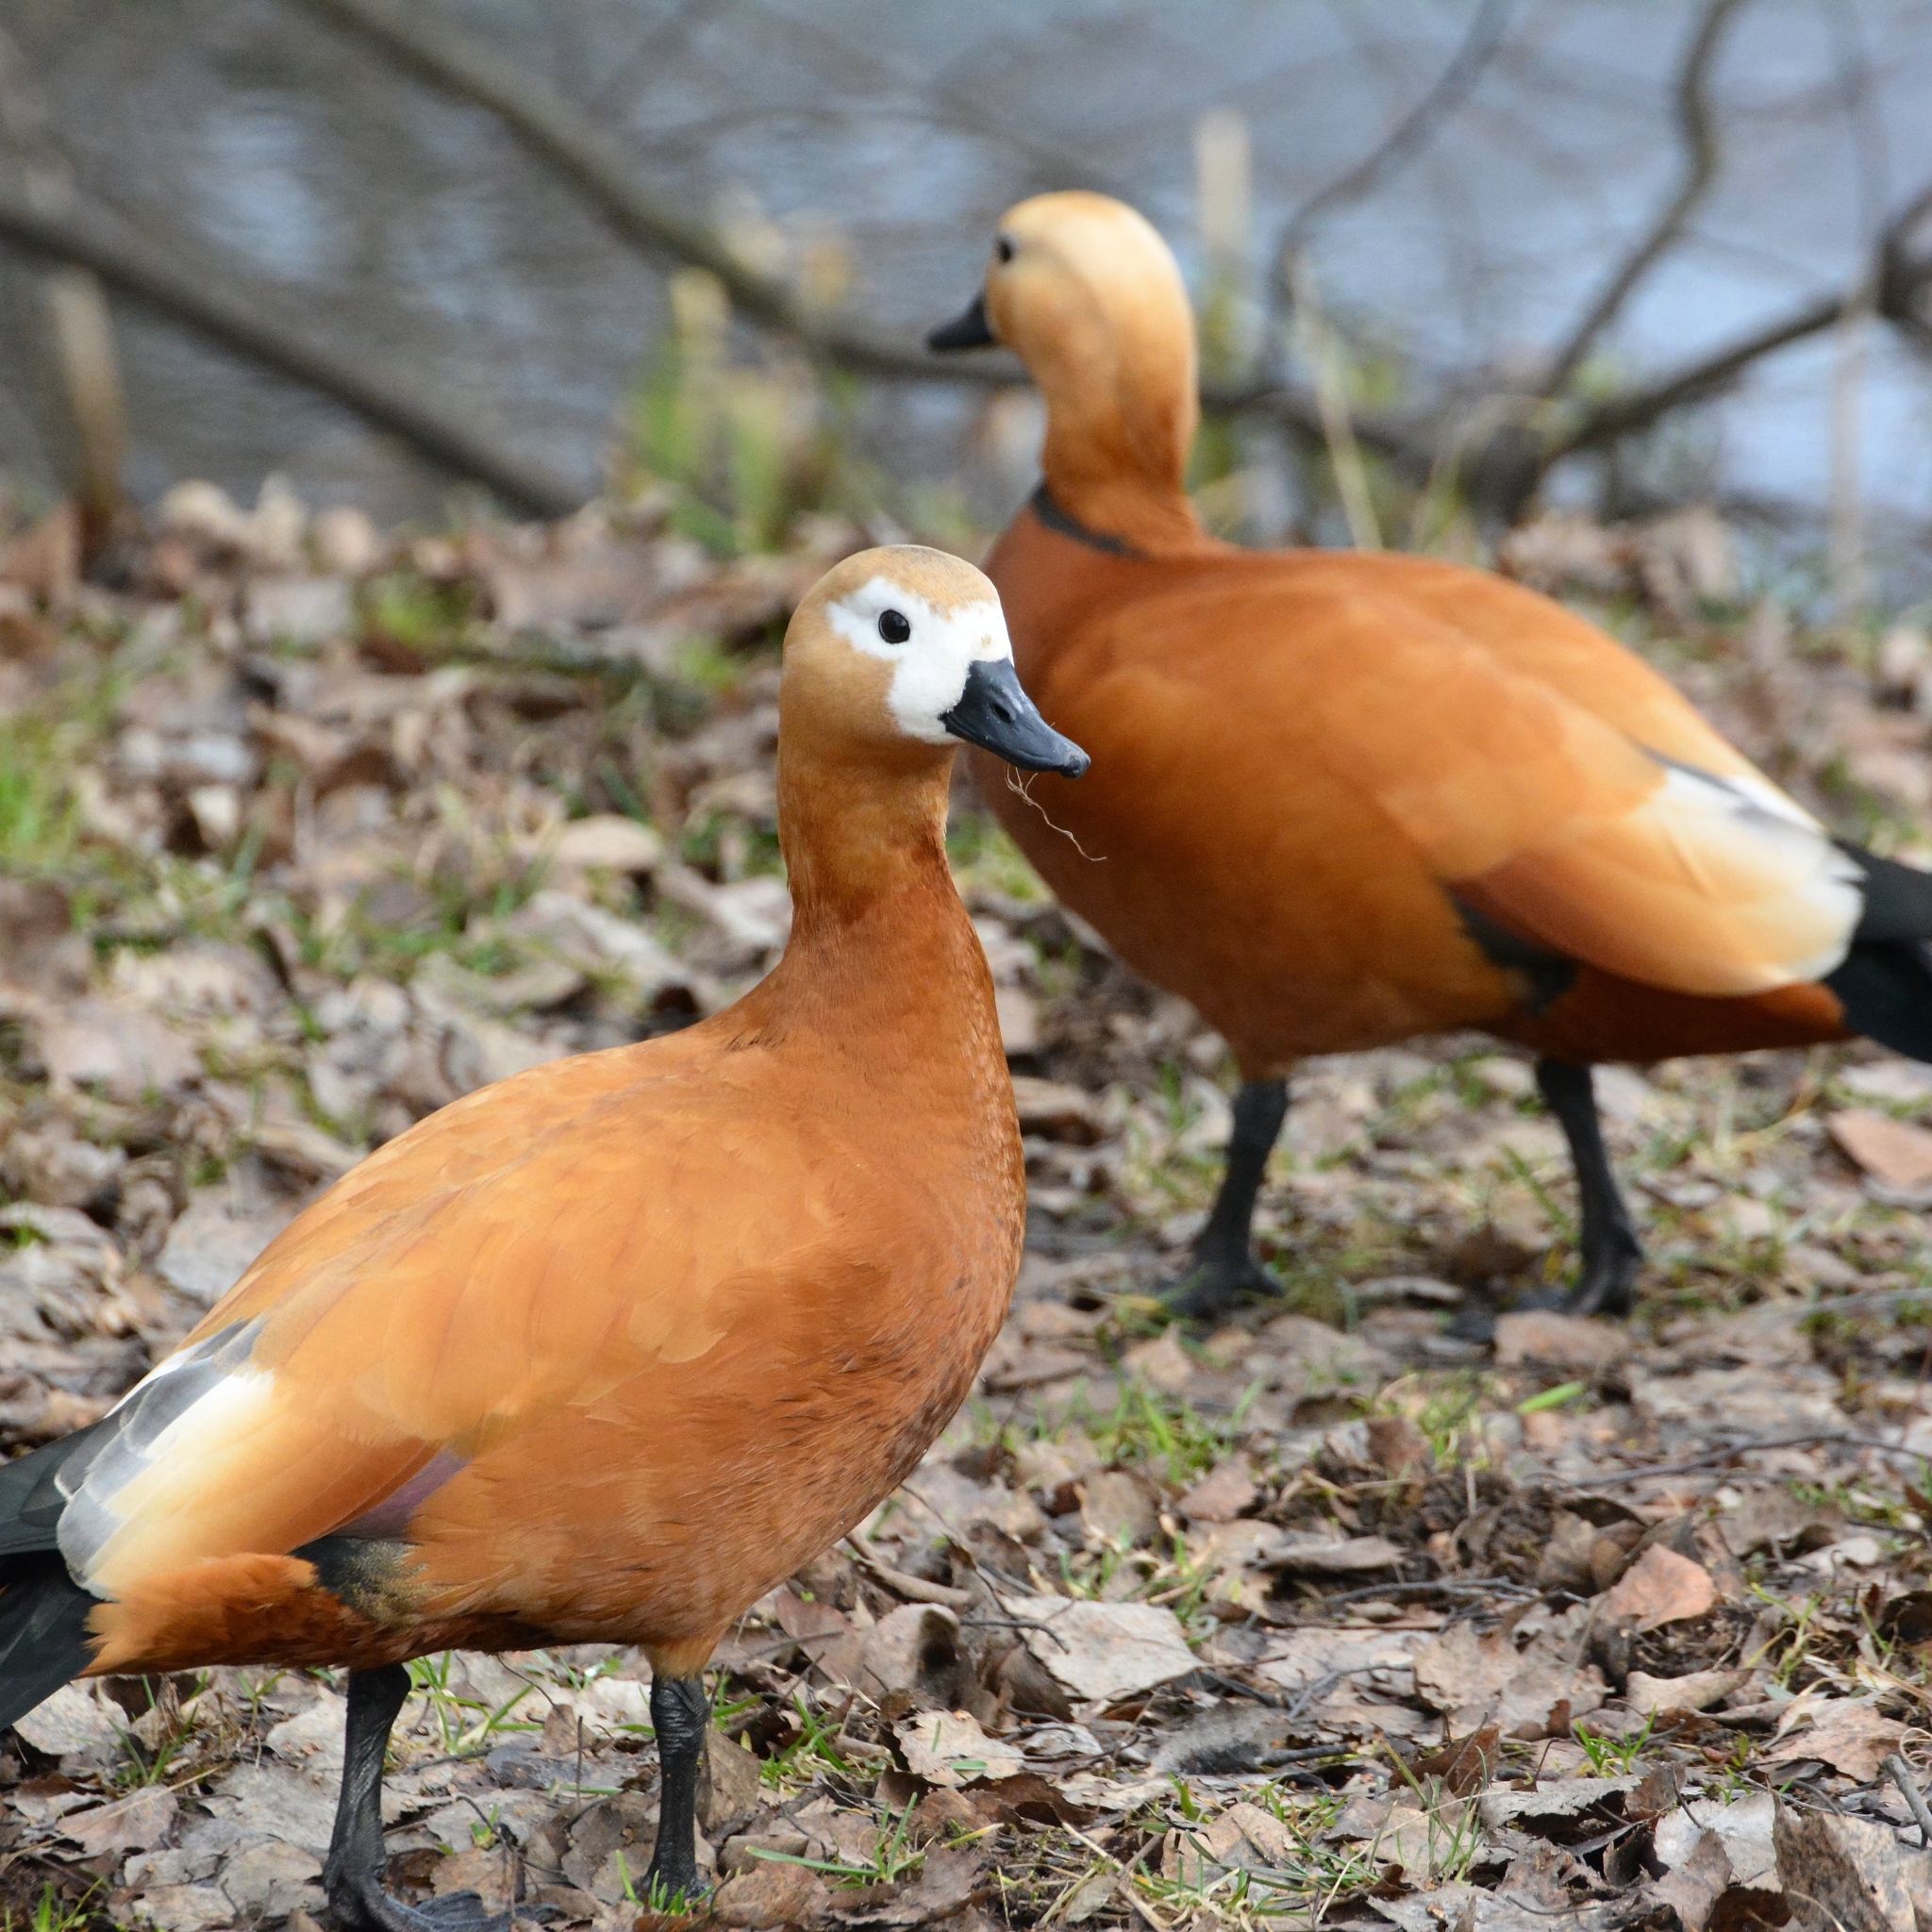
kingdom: Animalia
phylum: Chordata
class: Aves
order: Anseriformes
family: Anatidae
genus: Tadorna
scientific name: Tadorna ferruginea
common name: Ruddy shelduck
